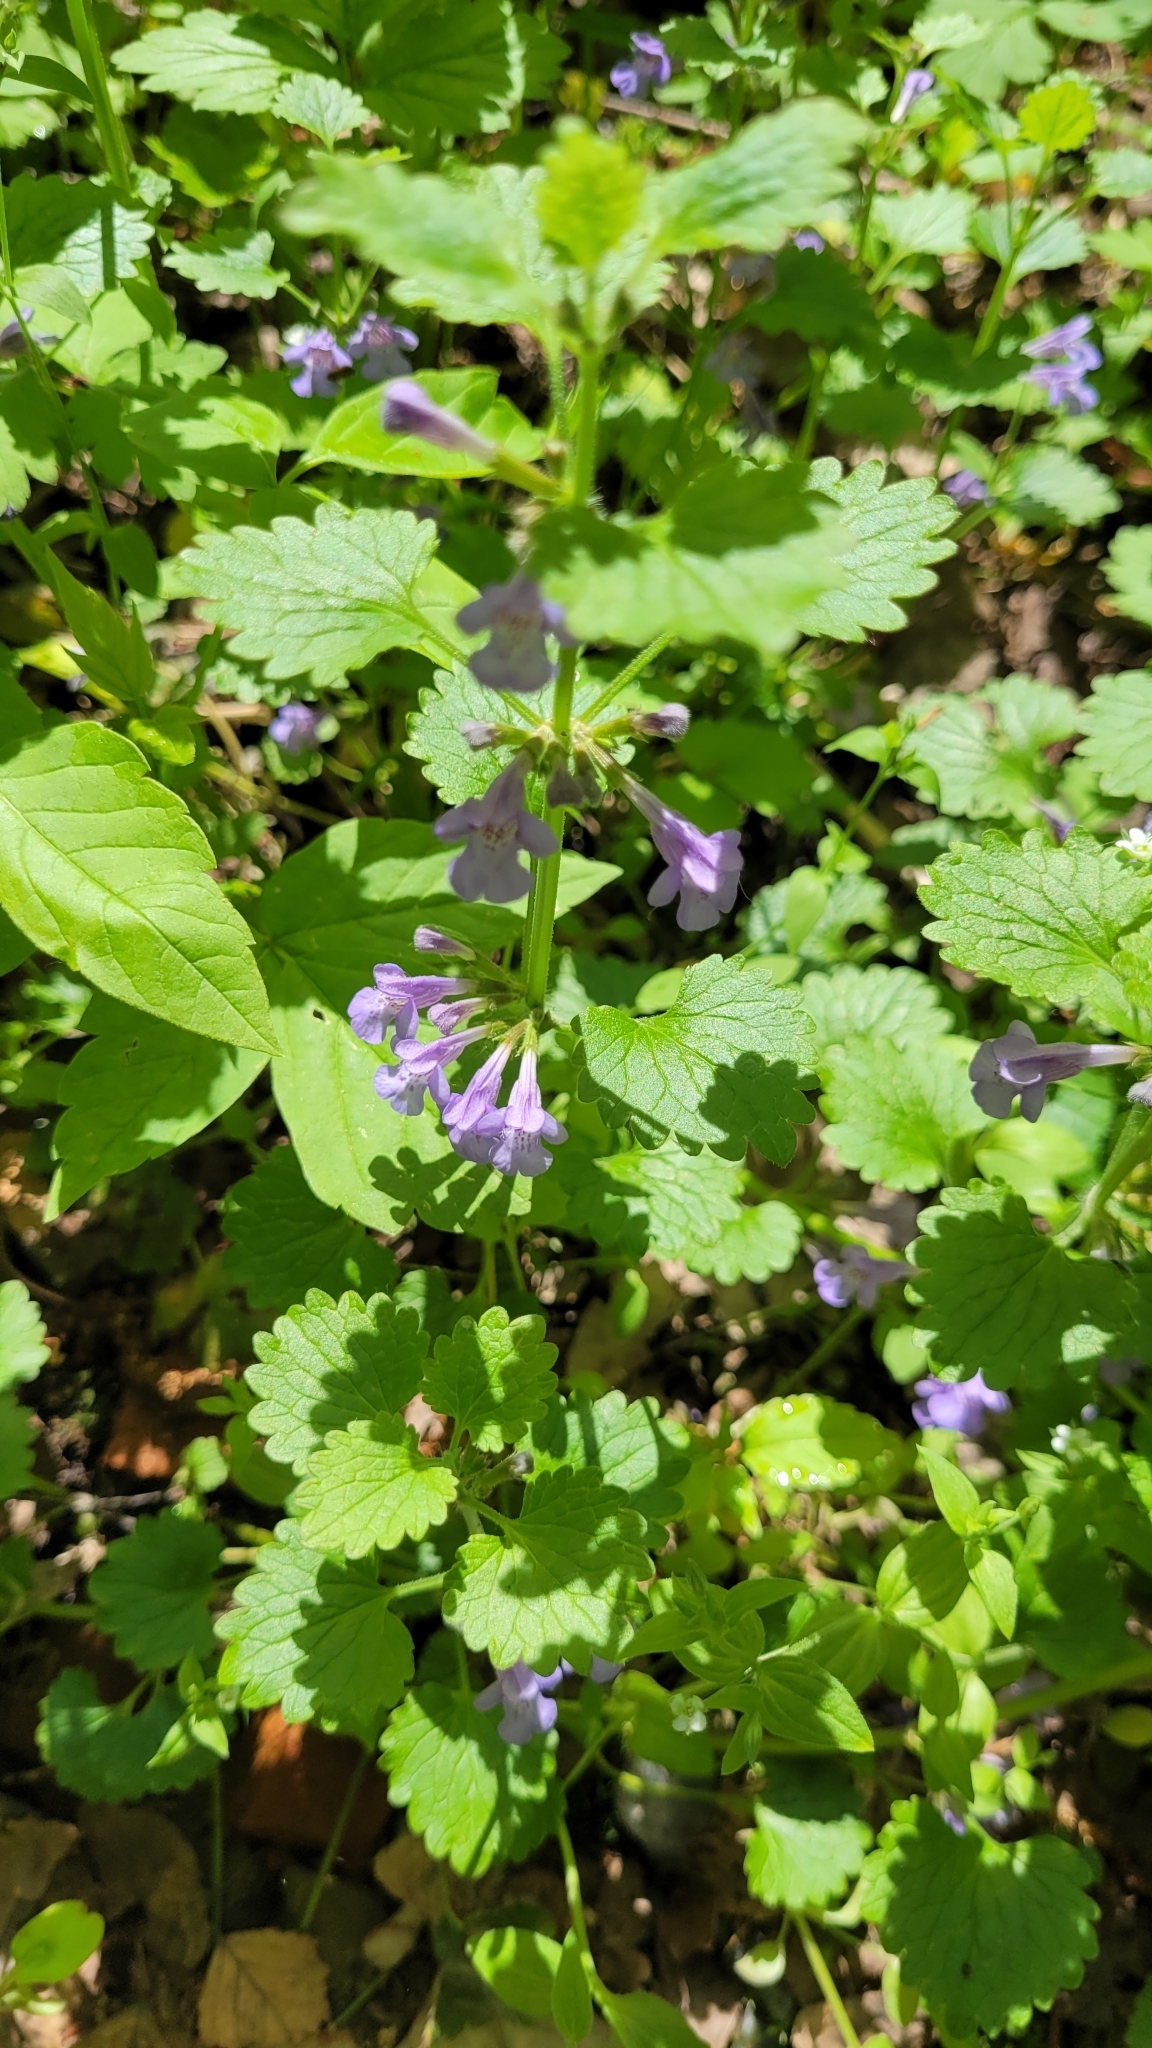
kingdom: Plantae
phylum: Tracheophyta
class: Magnoliopsida
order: Lamiales
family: Lamiaceae
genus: Glechoma
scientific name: Glechoma hederacea
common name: Ground ivy
